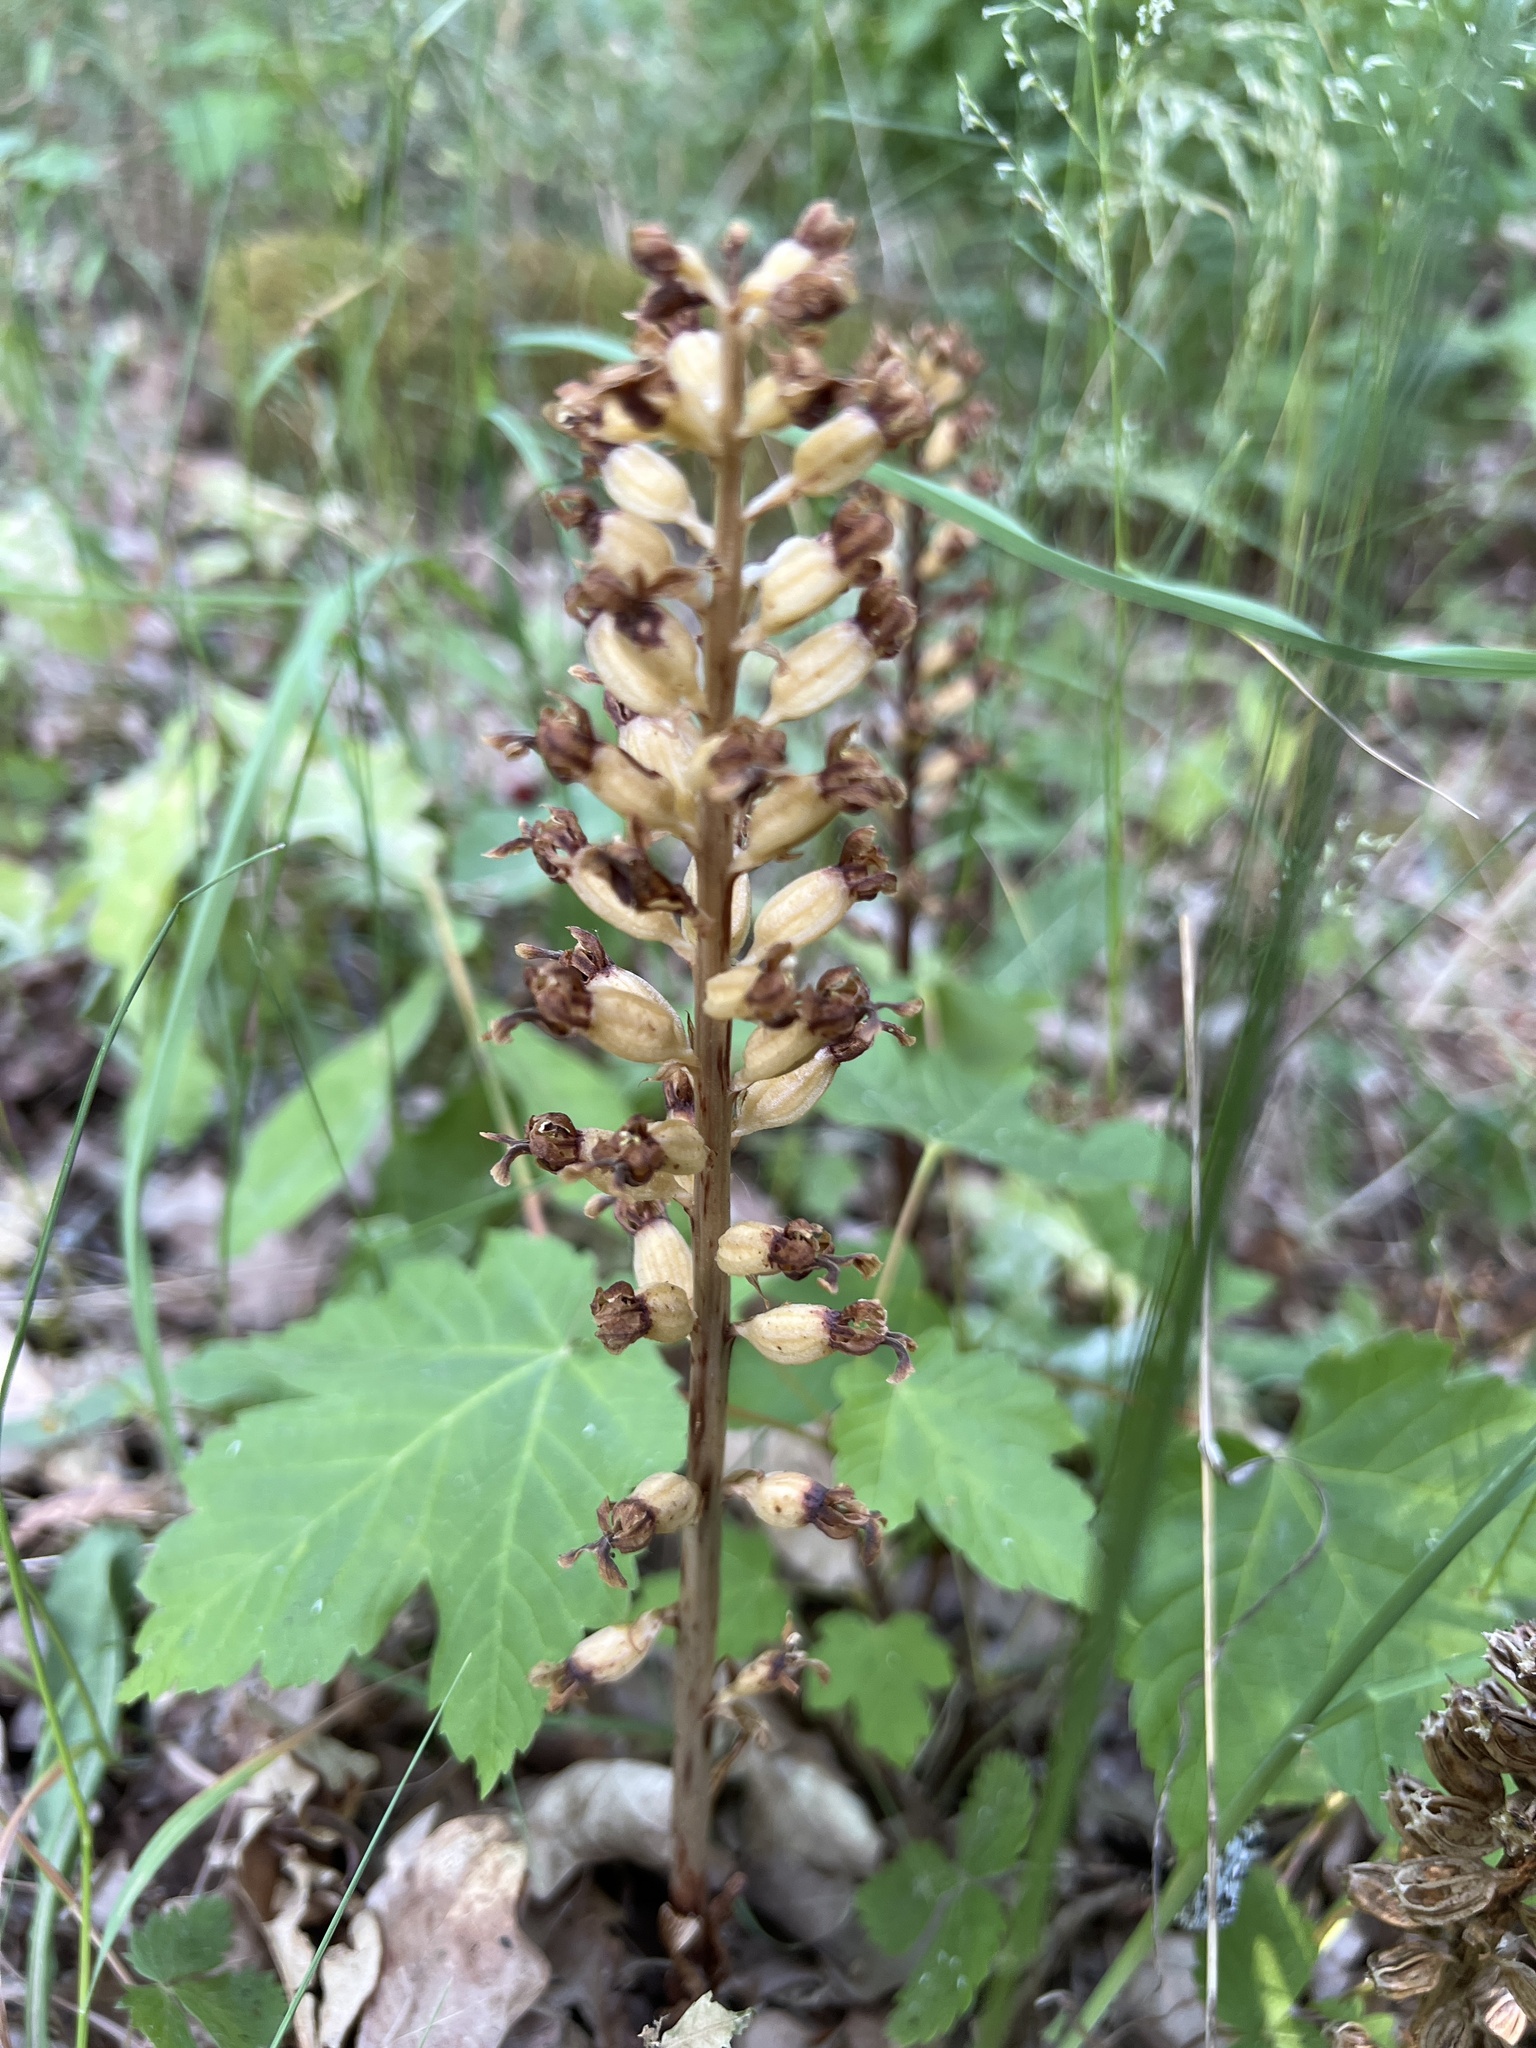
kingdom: Plantae
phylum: Tracheophyta
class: Liliopsida
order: Asparagales
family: Orchidaceae
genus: Neottia
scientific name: Neottia nidus-avis
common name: Bird's-nest orchid
